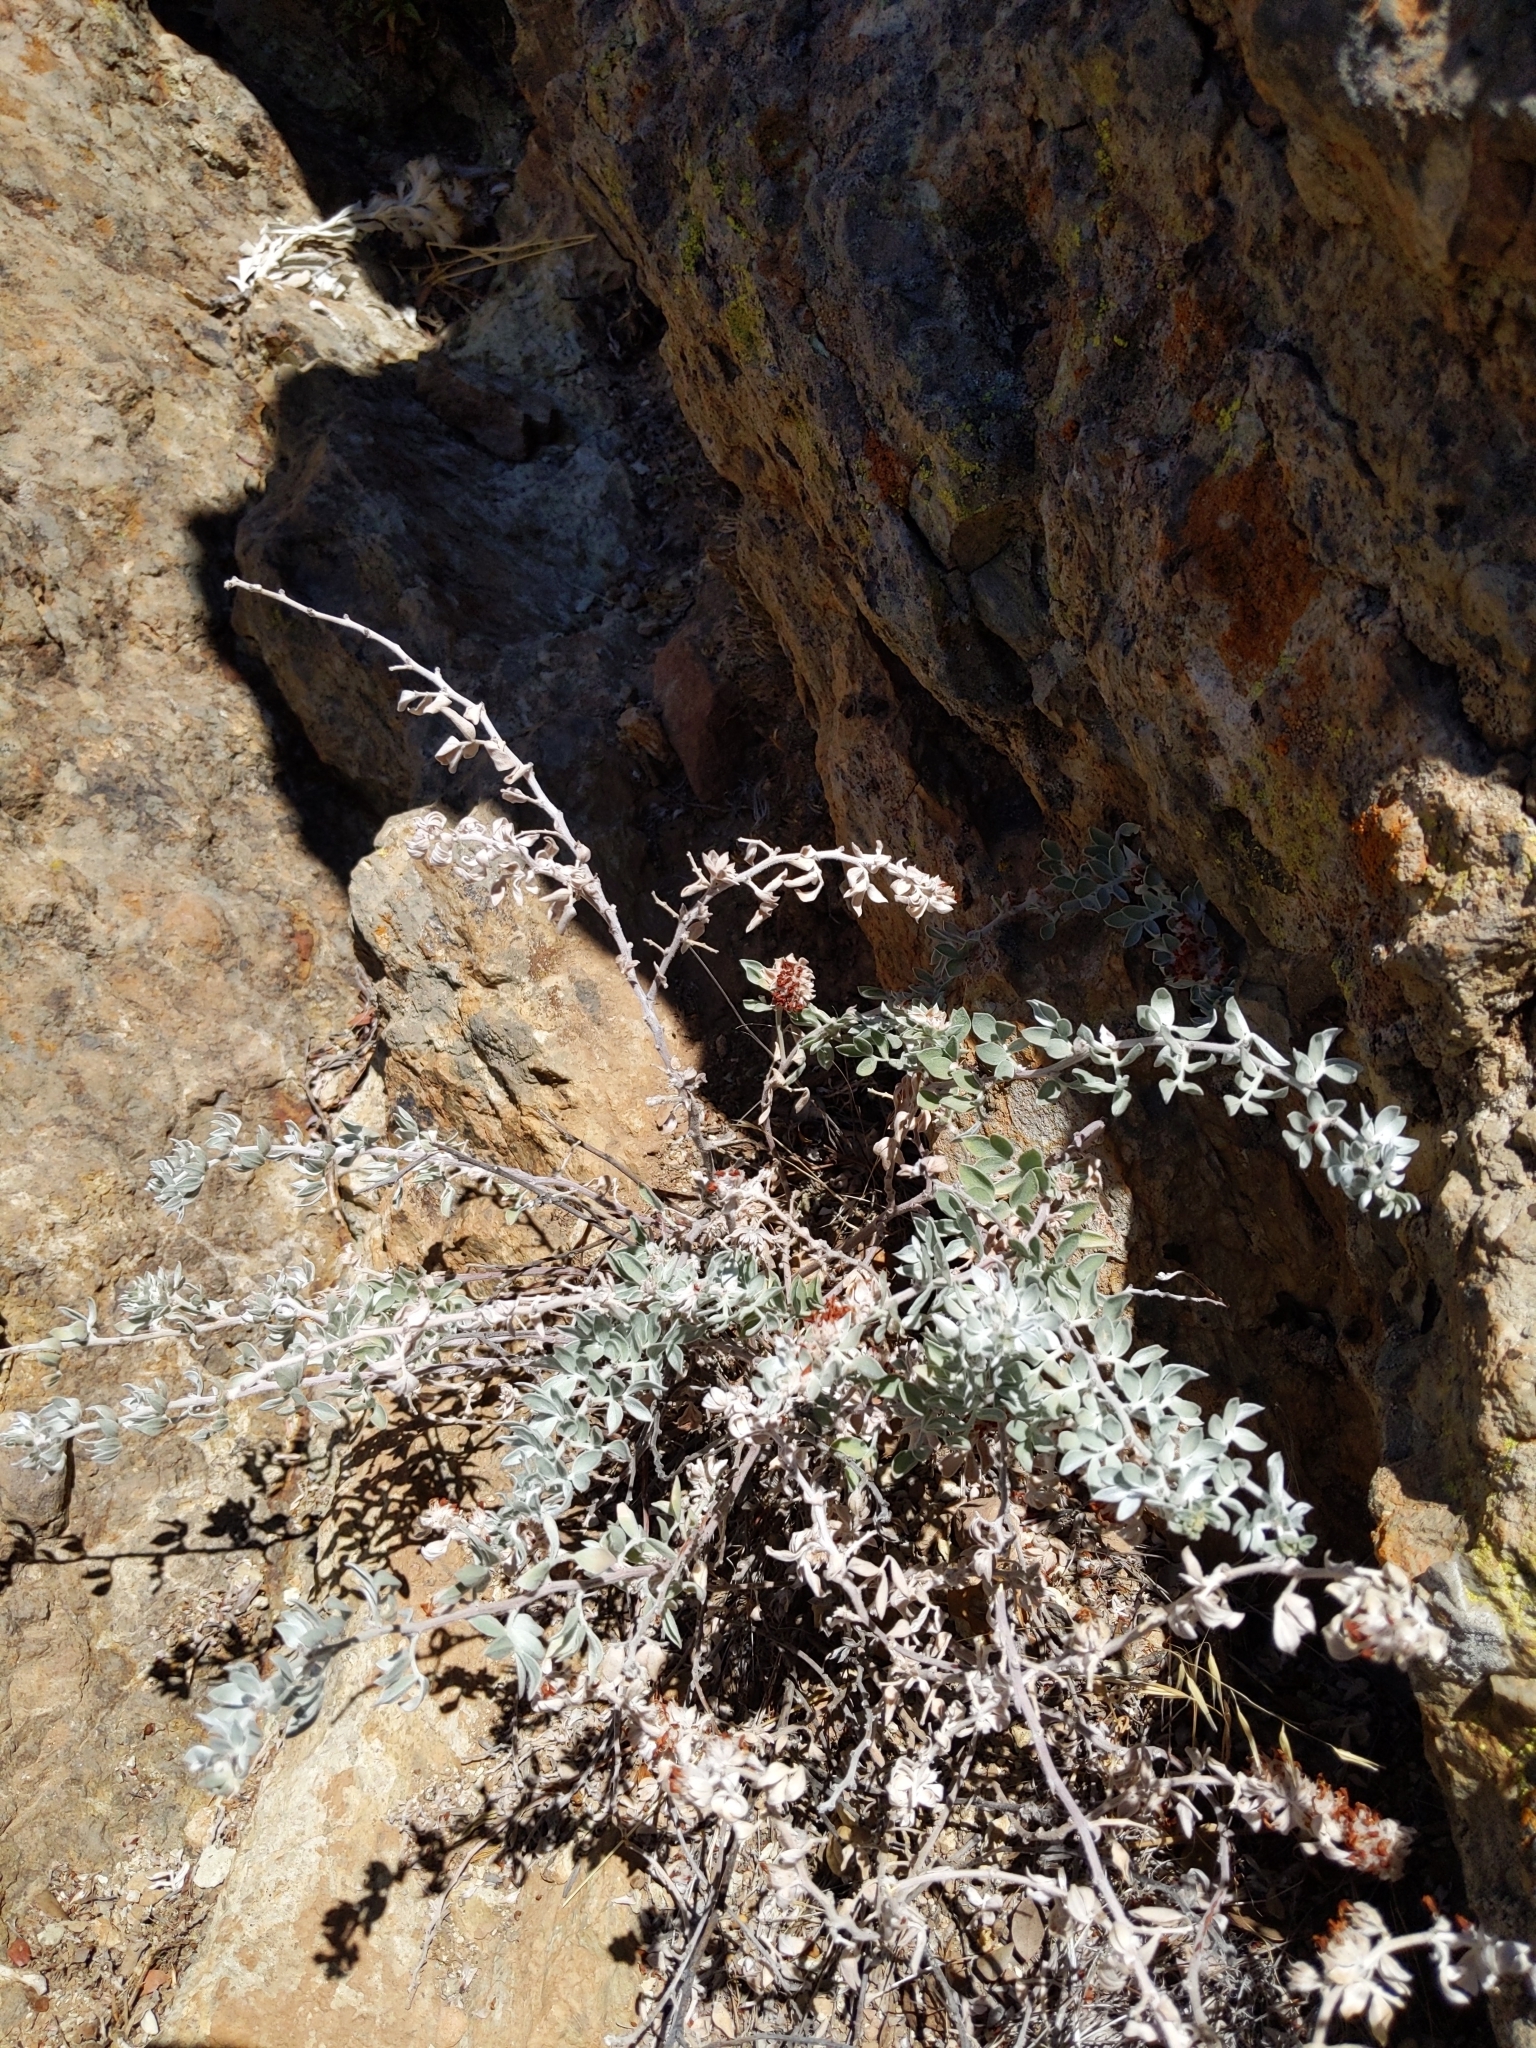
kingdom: Plantae
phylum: Tracheophyta
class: Magnoliopsida
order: Fabales
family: Fabaceae
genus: Acmispon
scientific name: Acmispon argophyllus
